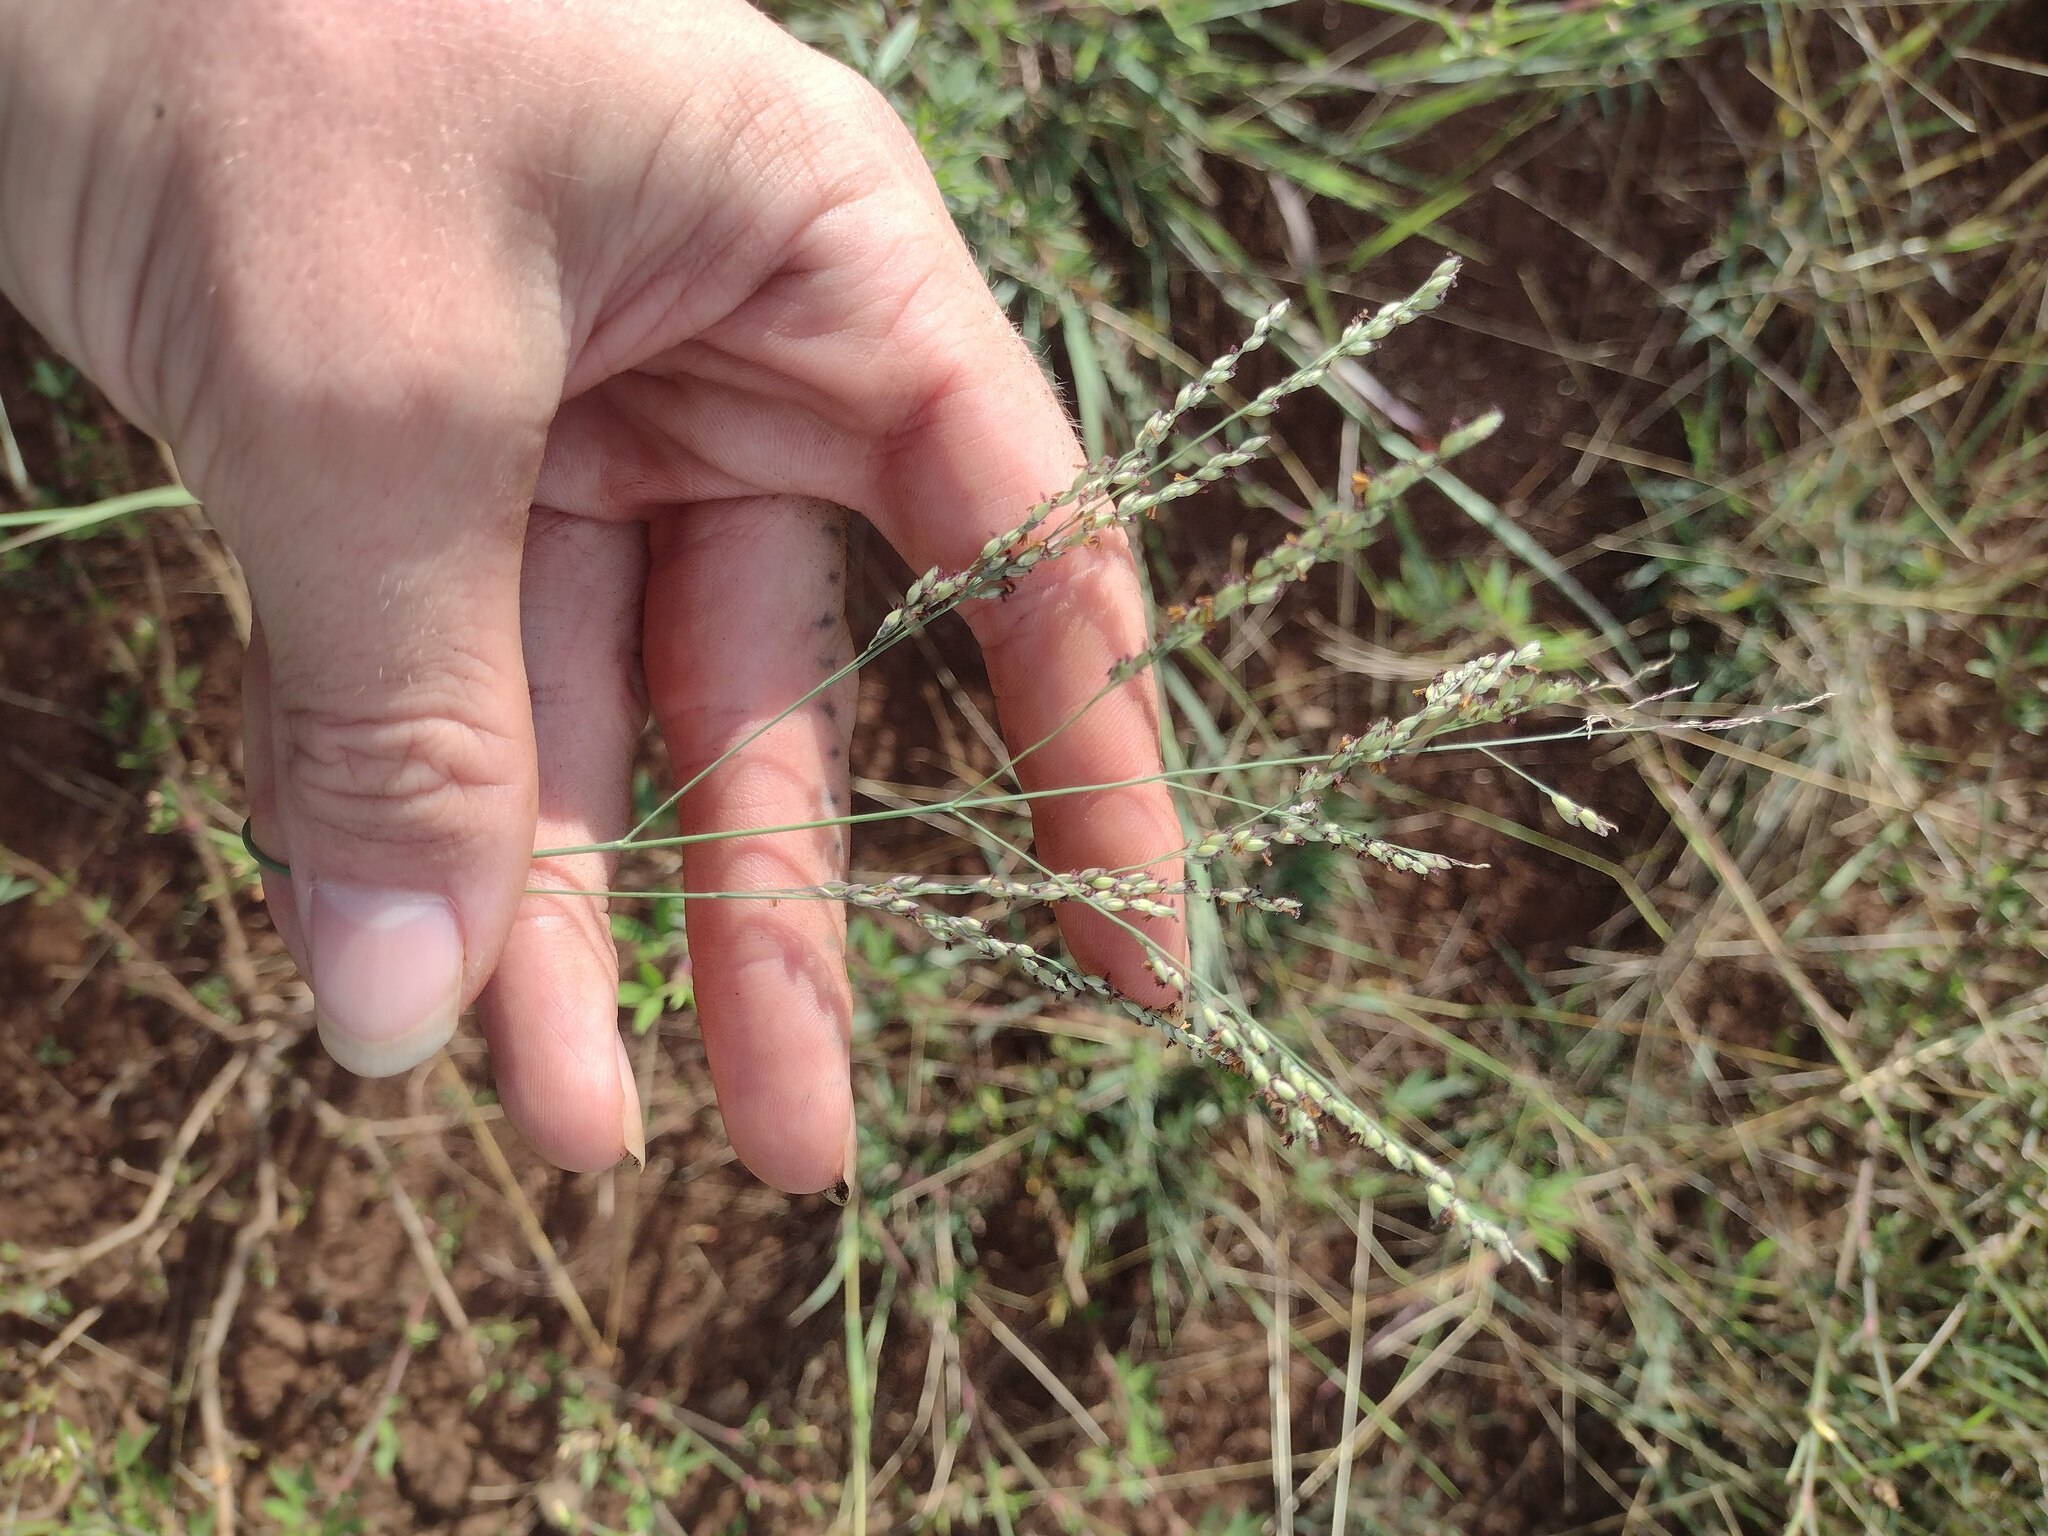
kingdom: Plantae
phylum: Tracheophyta
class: Liliopsida
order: Poales
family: Poaceae
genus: Panicum
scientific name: Panicum coloratum
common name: Kleingrass
